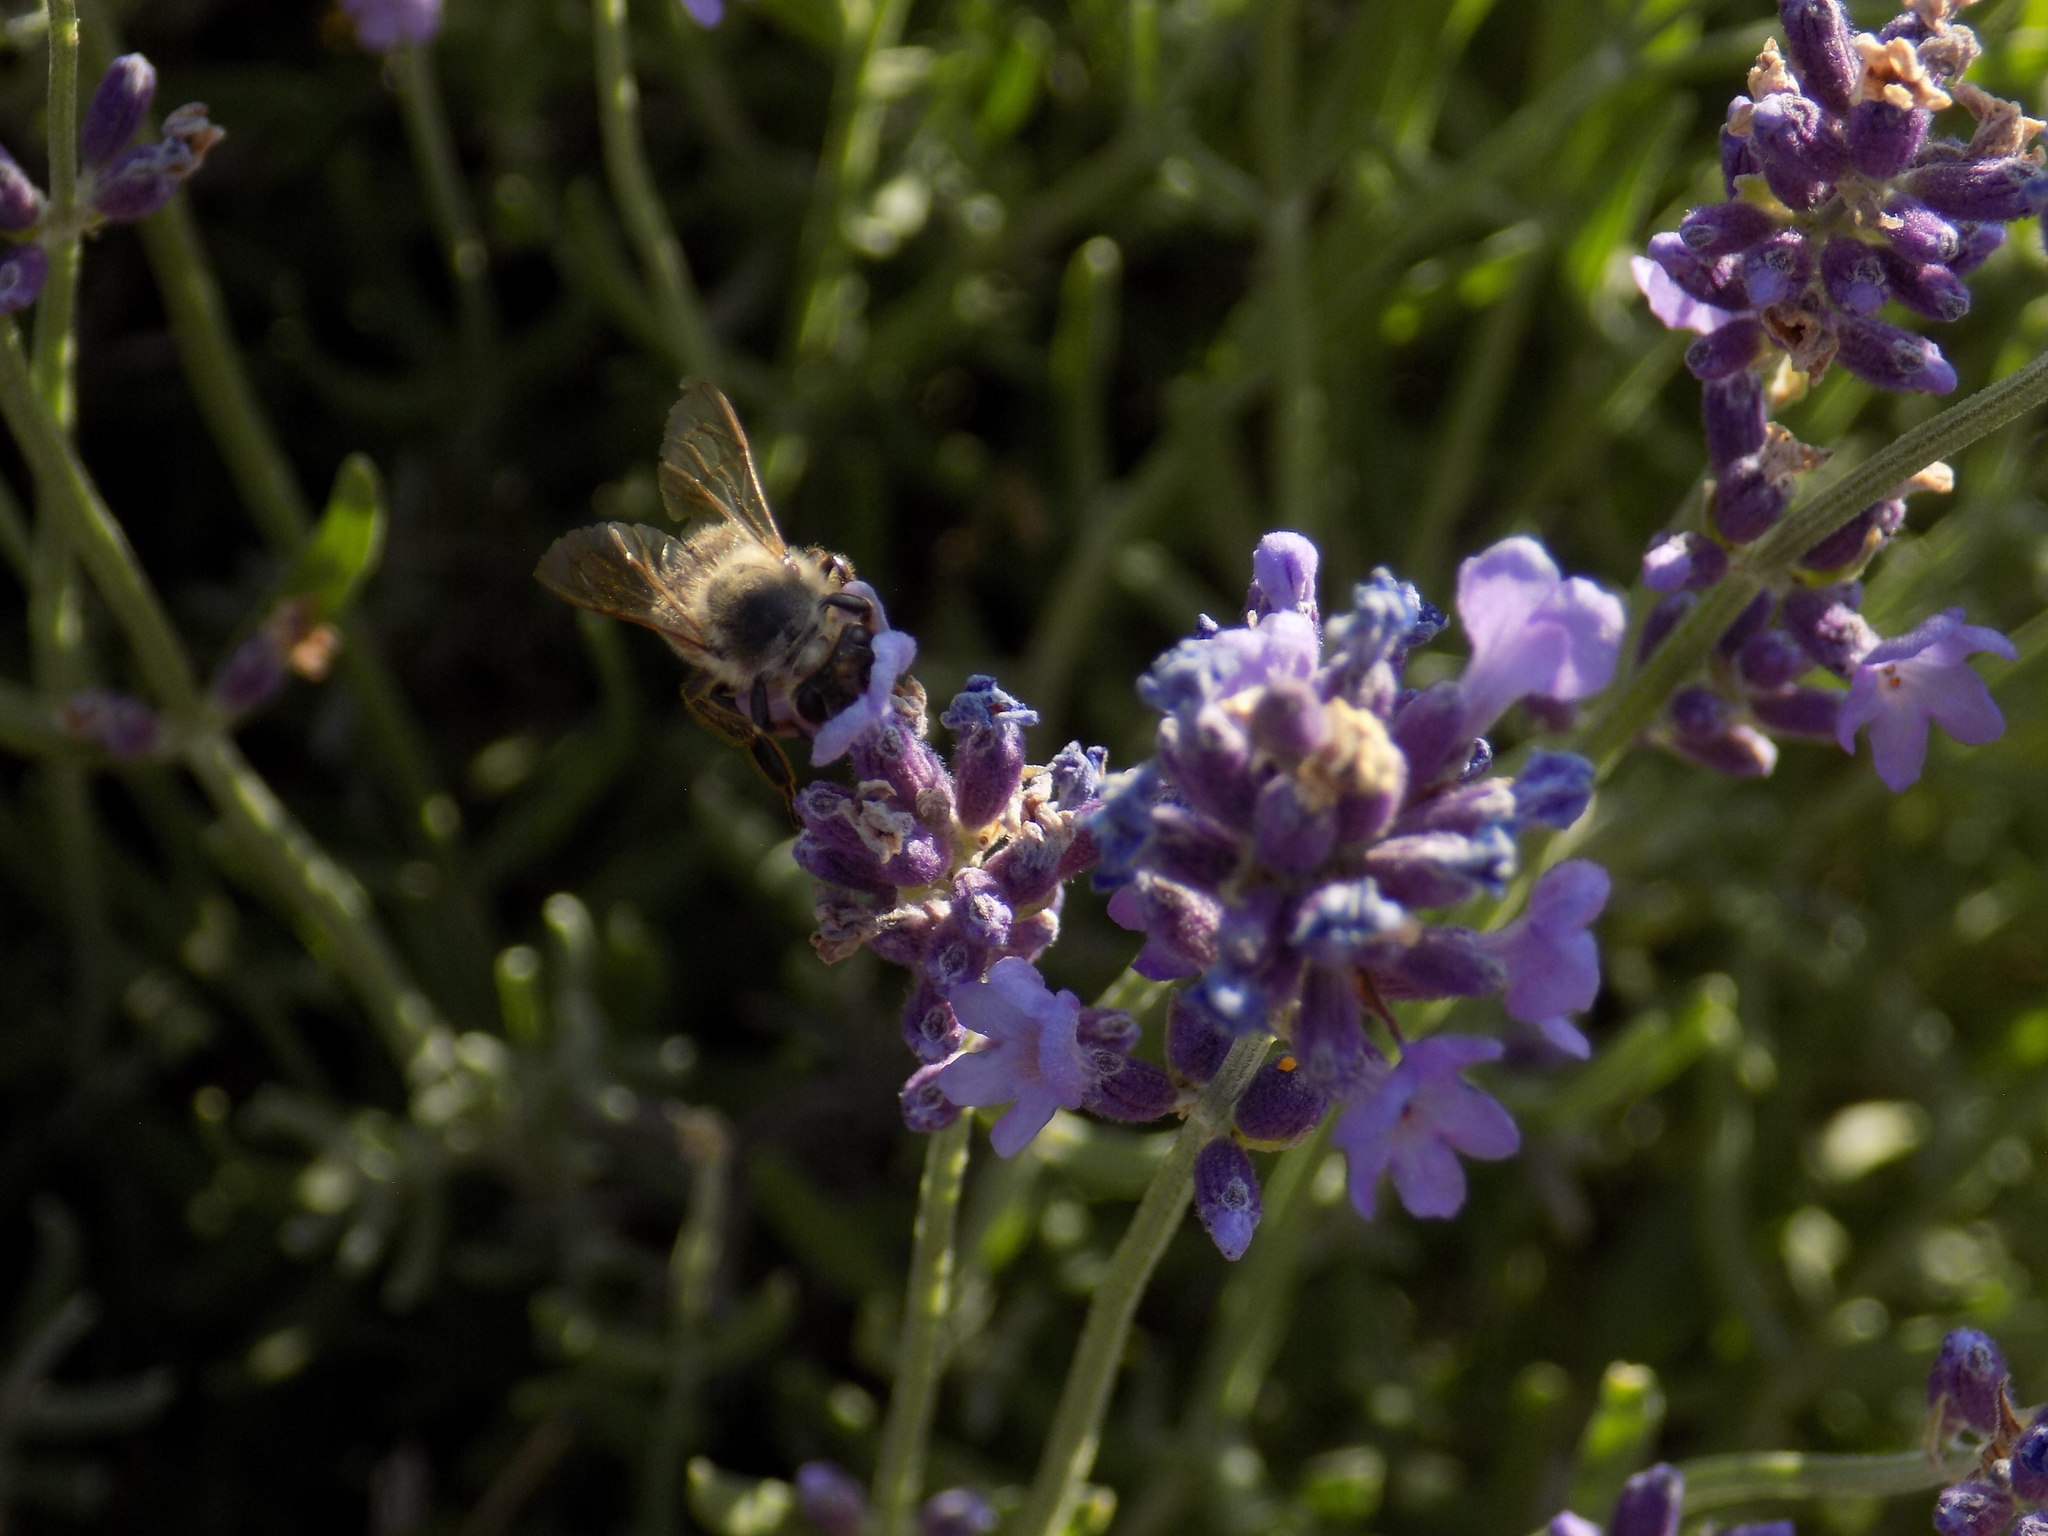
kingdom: Animalia
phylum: Arthropoda
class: Insecta
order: Hymenoptera
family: Apidae
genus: Apis
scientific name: Apis mellifera
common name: Honey bee
